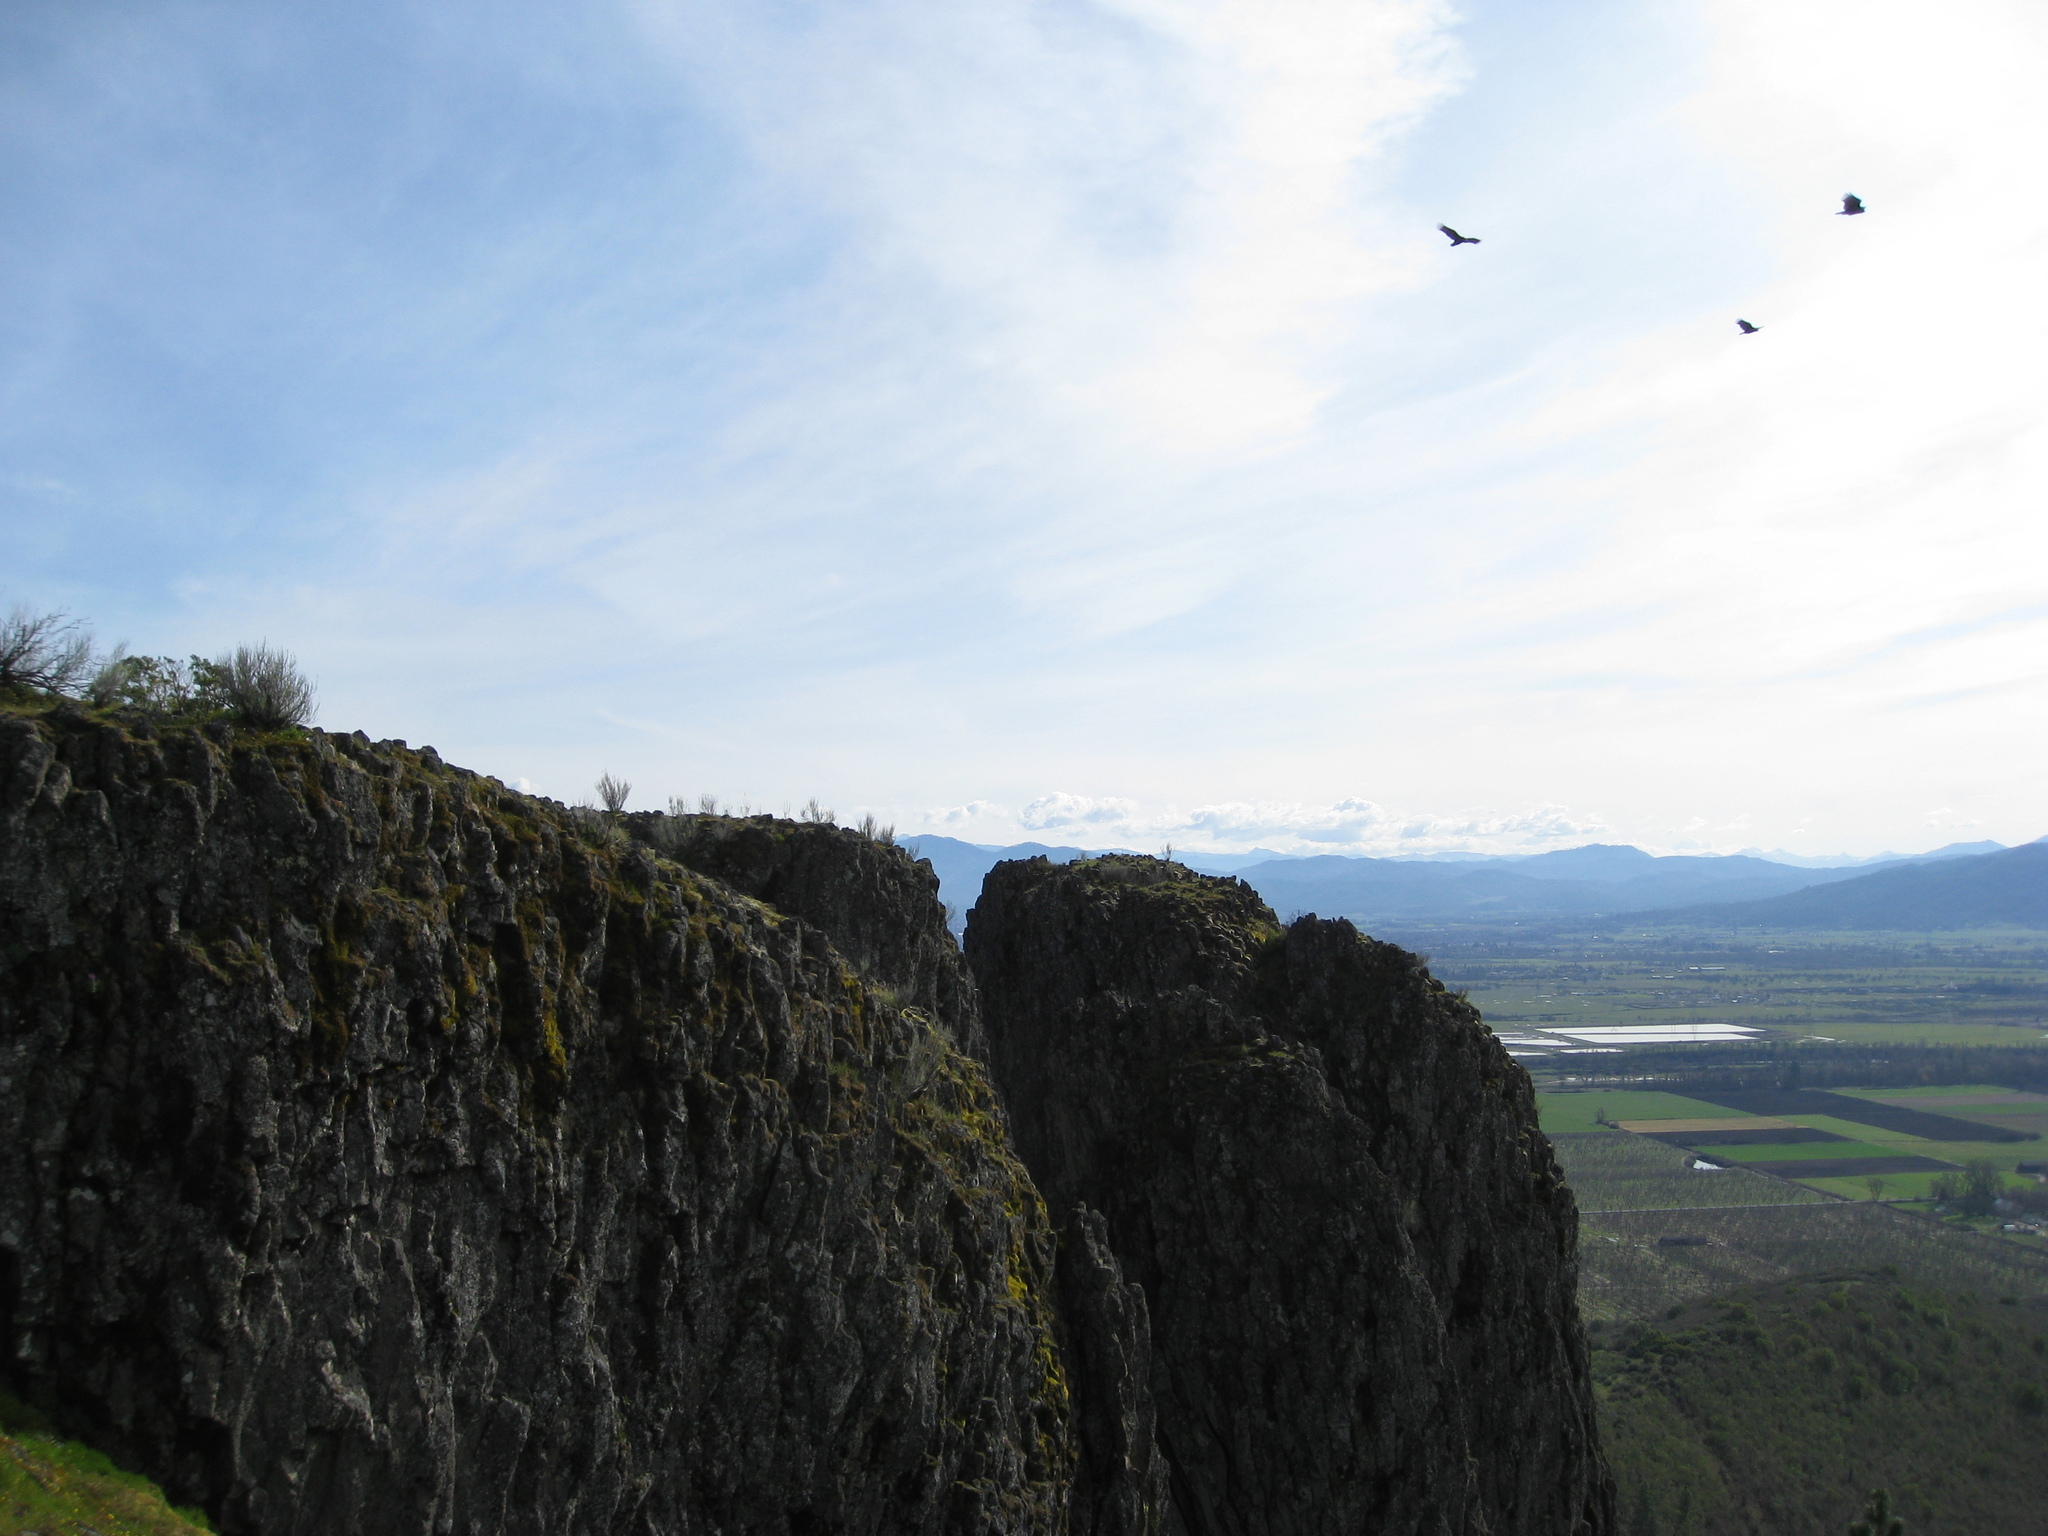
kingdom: Animalia
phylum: Chordata
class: Aves
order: Accipitriformes
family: Cathartidae
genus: Cathartes
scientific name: Cathartes aura
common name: Turkey vulture
